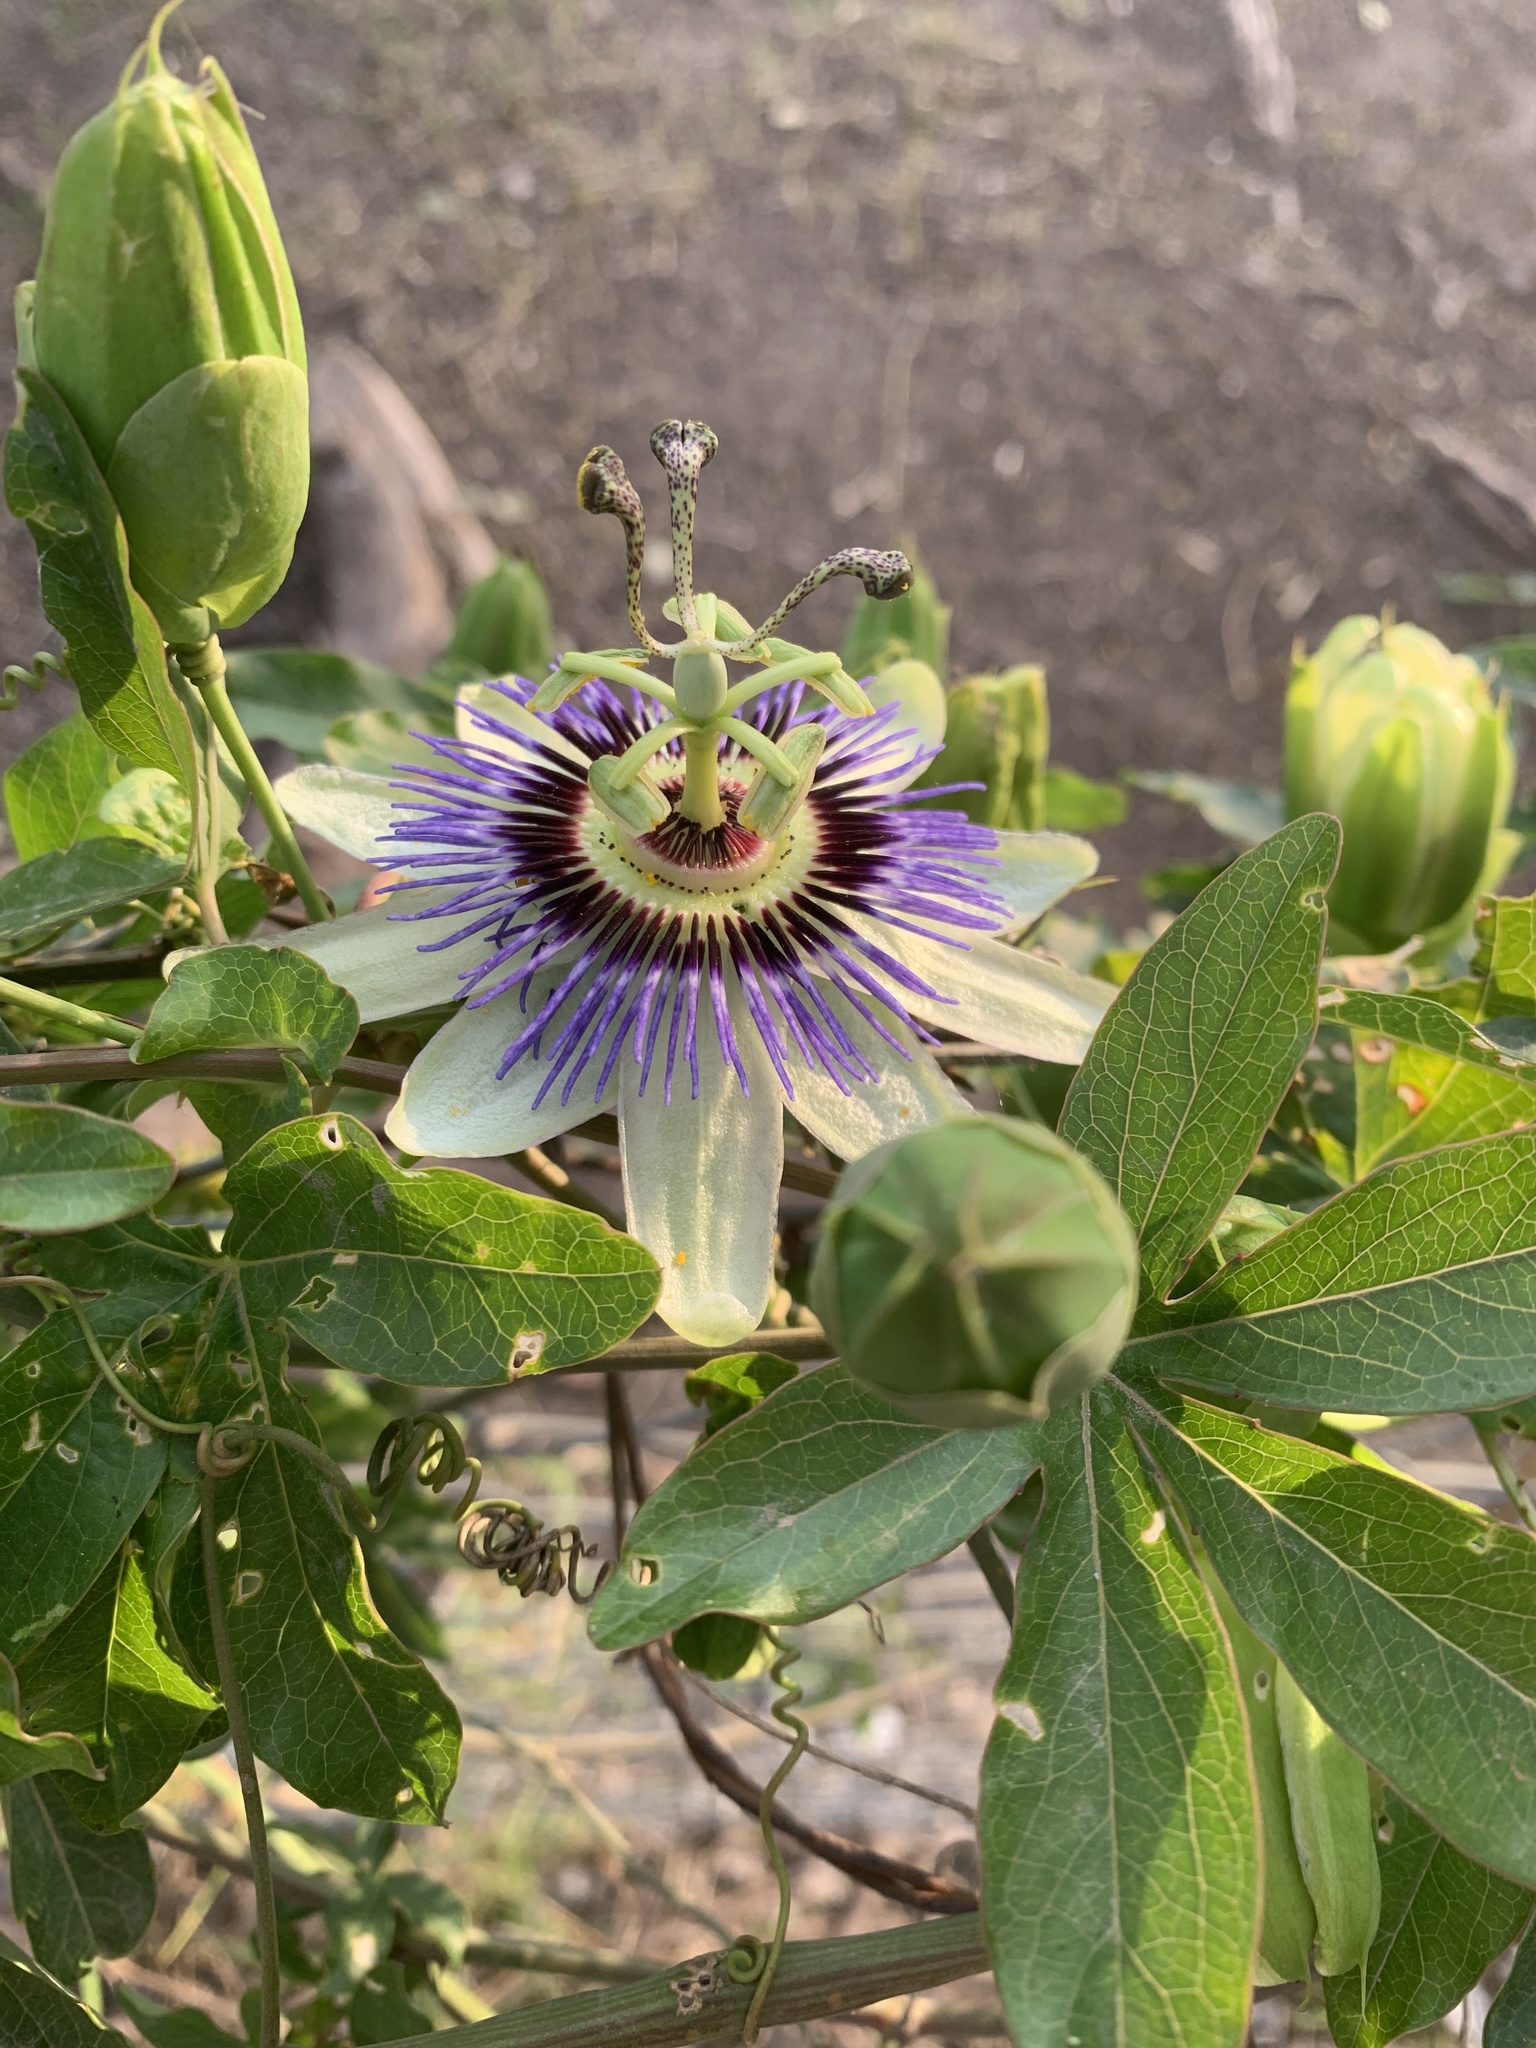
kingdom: Plantae
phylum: Tracheophyta
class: Magnoliopsida
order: Malpighiales
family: Passifloraceae
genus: Passiflora
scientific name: Passiflora caerulea
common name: Blue passionflower
